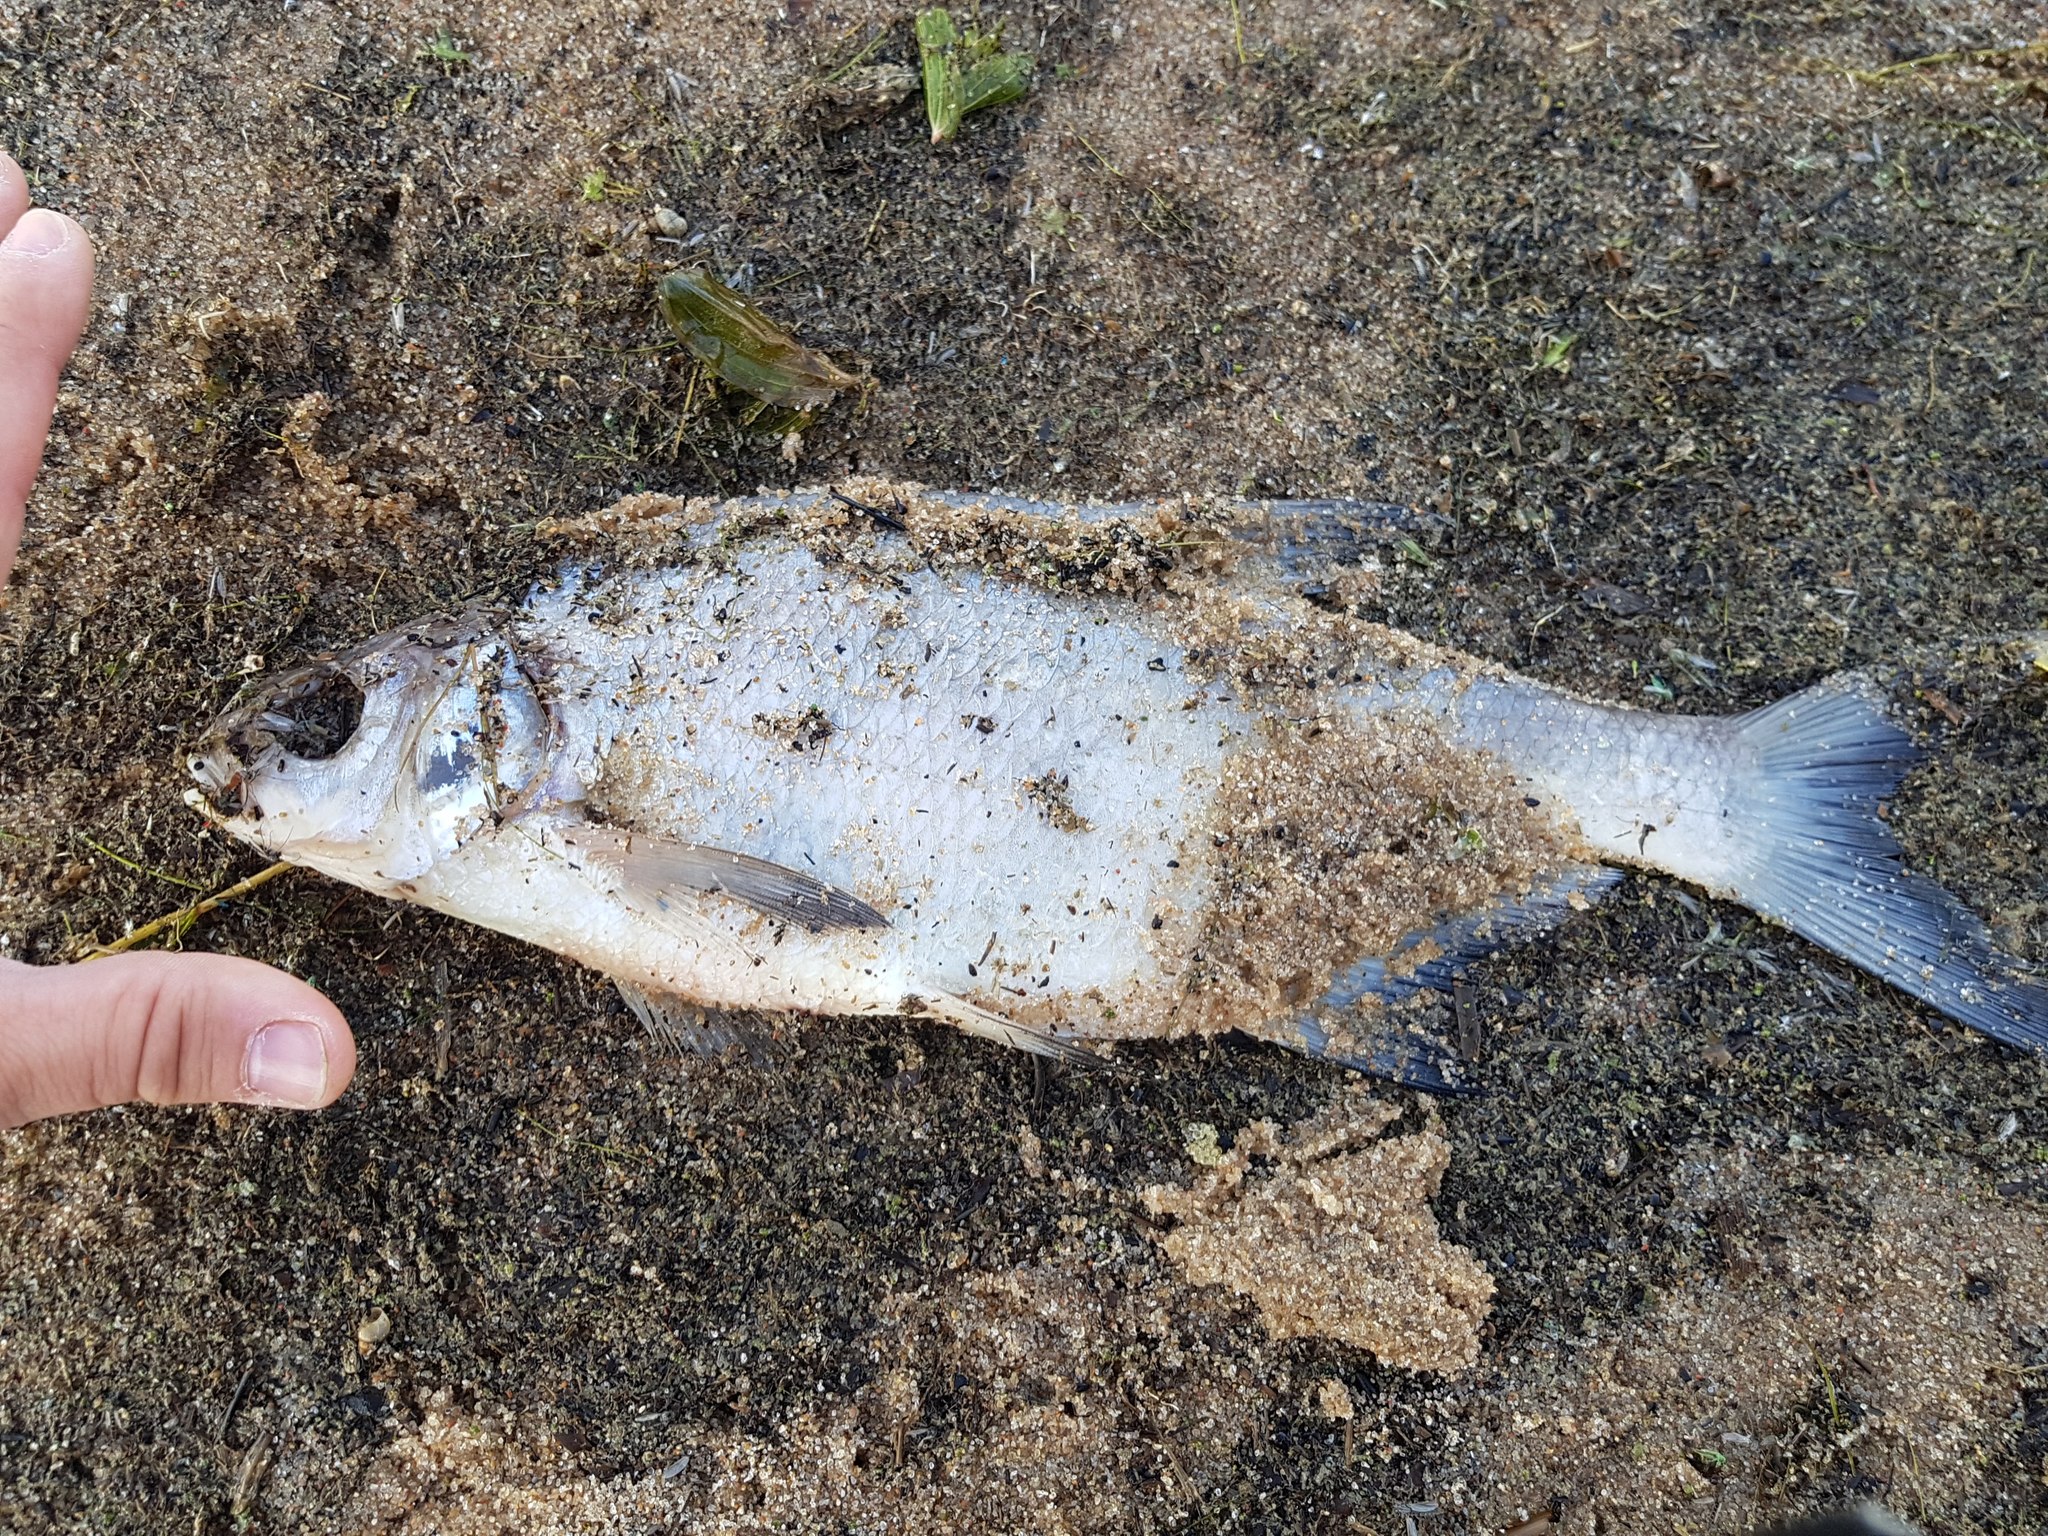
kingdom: Animalia
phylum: Chordata
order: Cypriniformes
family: Cyprinidae
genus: Abramis
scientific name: Abramis brama
